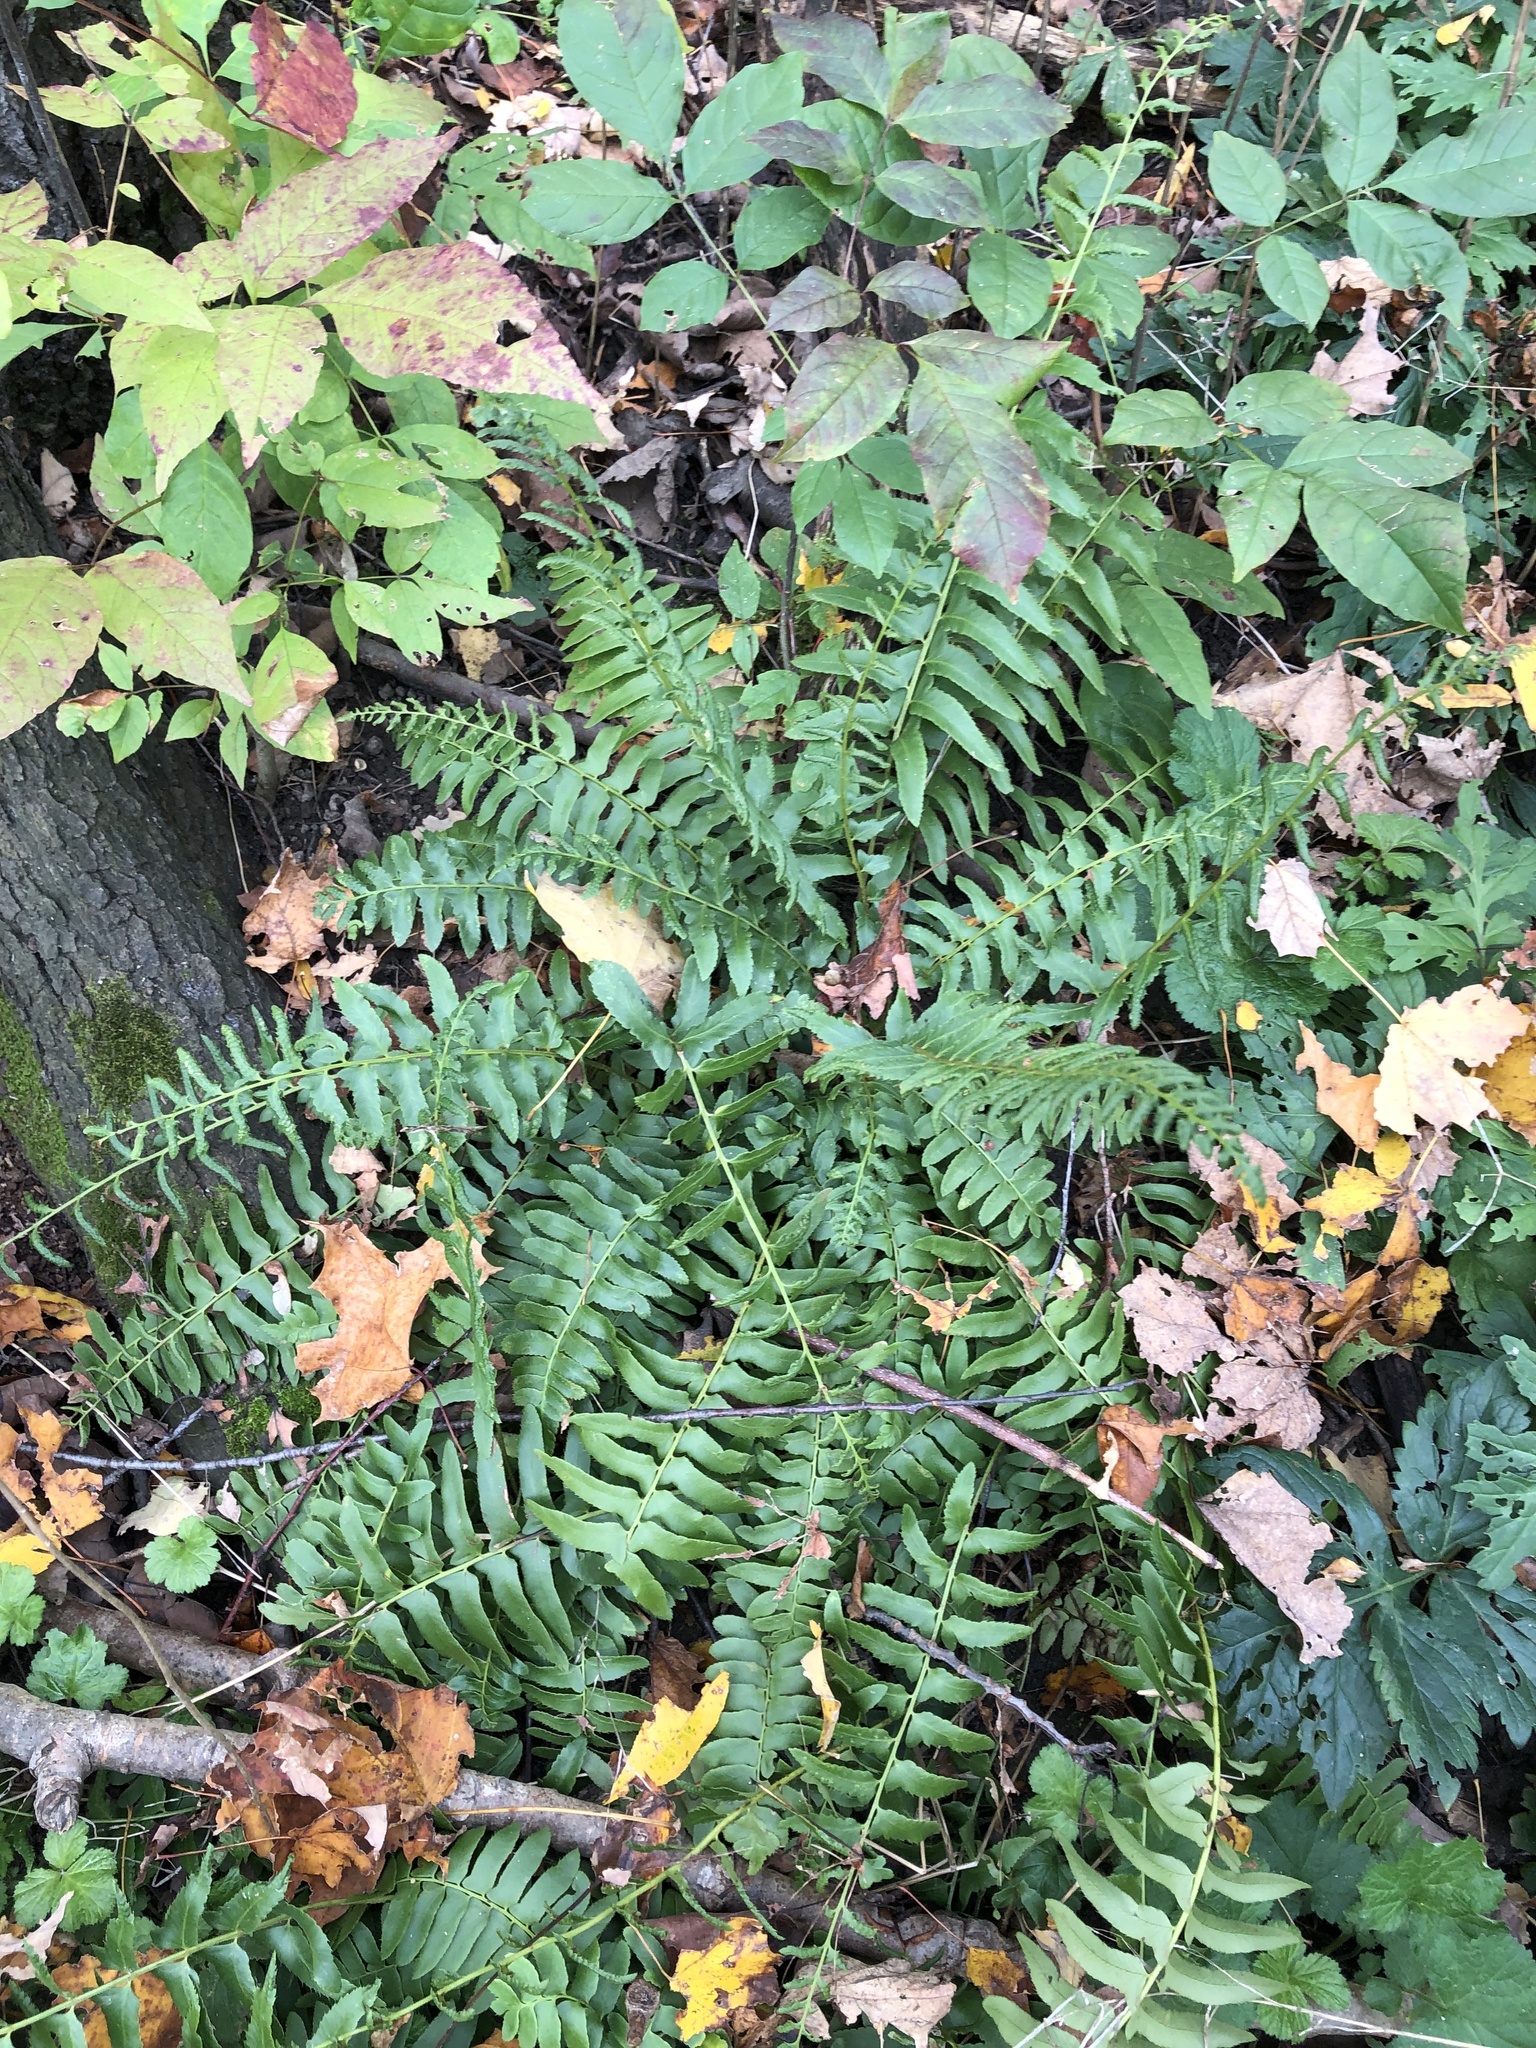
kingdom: Plantae
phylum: Tracheophyta
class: Polypodiopsida
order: Polypodiales
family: Dryopteridaceae
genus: Polystichum
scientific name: Polystichum acrostichoides
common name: Christmas fern
